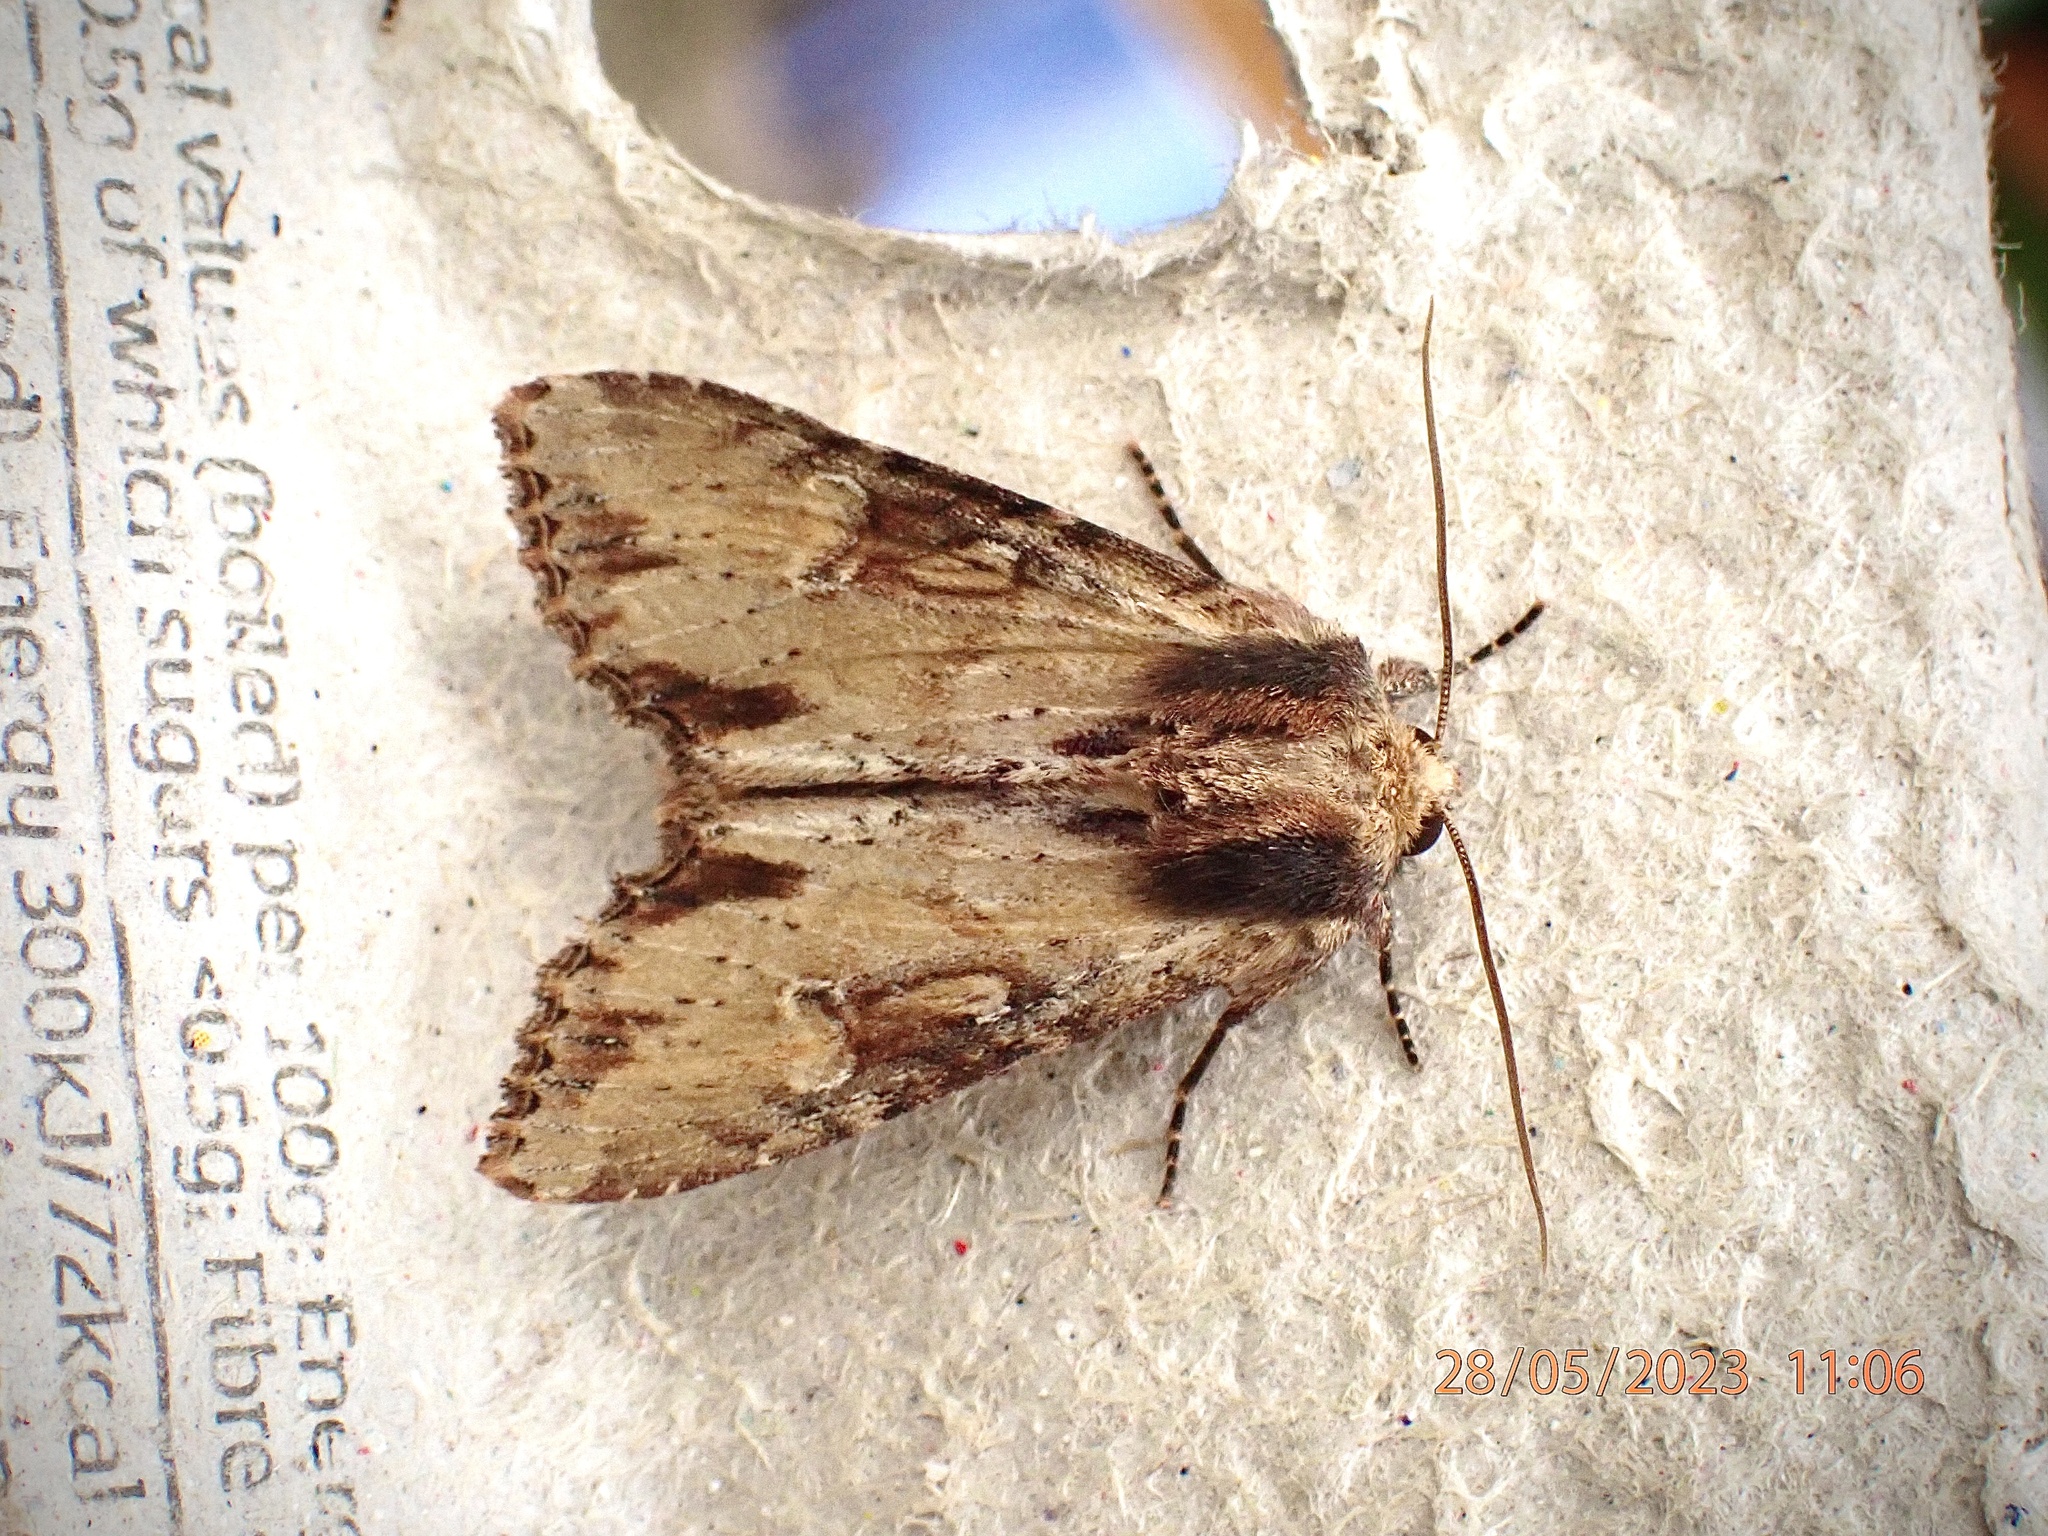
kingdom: Animalia
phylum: Arthropoda
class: Insecta
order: Lepidoptera
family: Noctuidae
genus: Apamea
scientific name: Apamea crenata
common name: Clouded-bordered brindle
